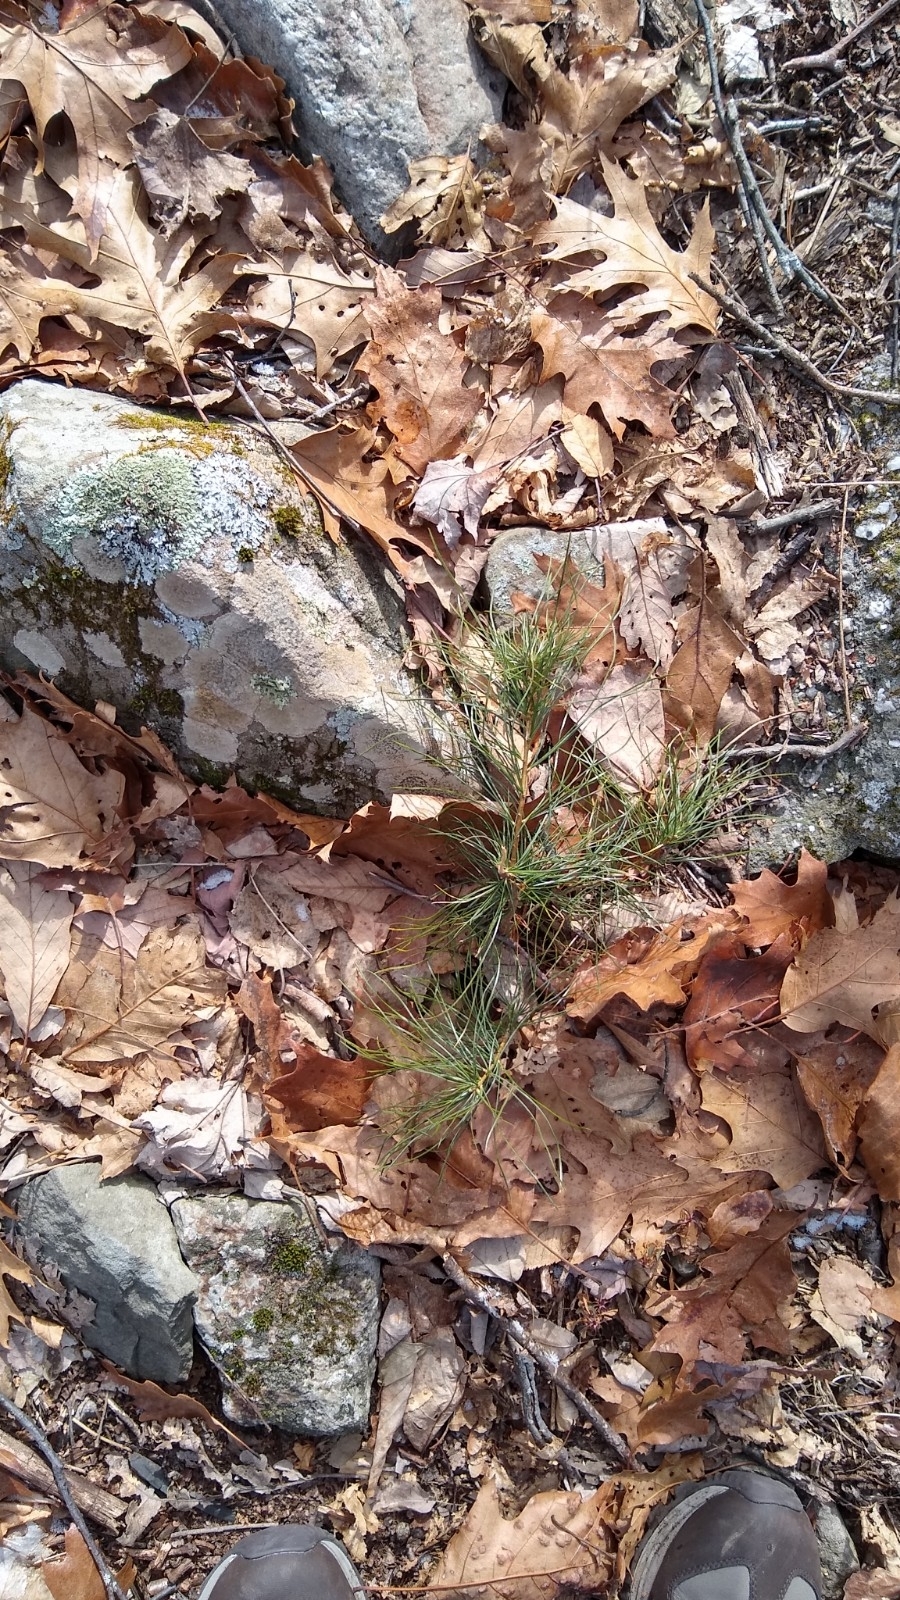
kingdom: Plantae
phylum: Tracheophyta
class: Pinopsida
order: Pinales
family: Pinaceae
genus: Pinus
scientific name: Pinus strobus
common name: Weymouth pine
